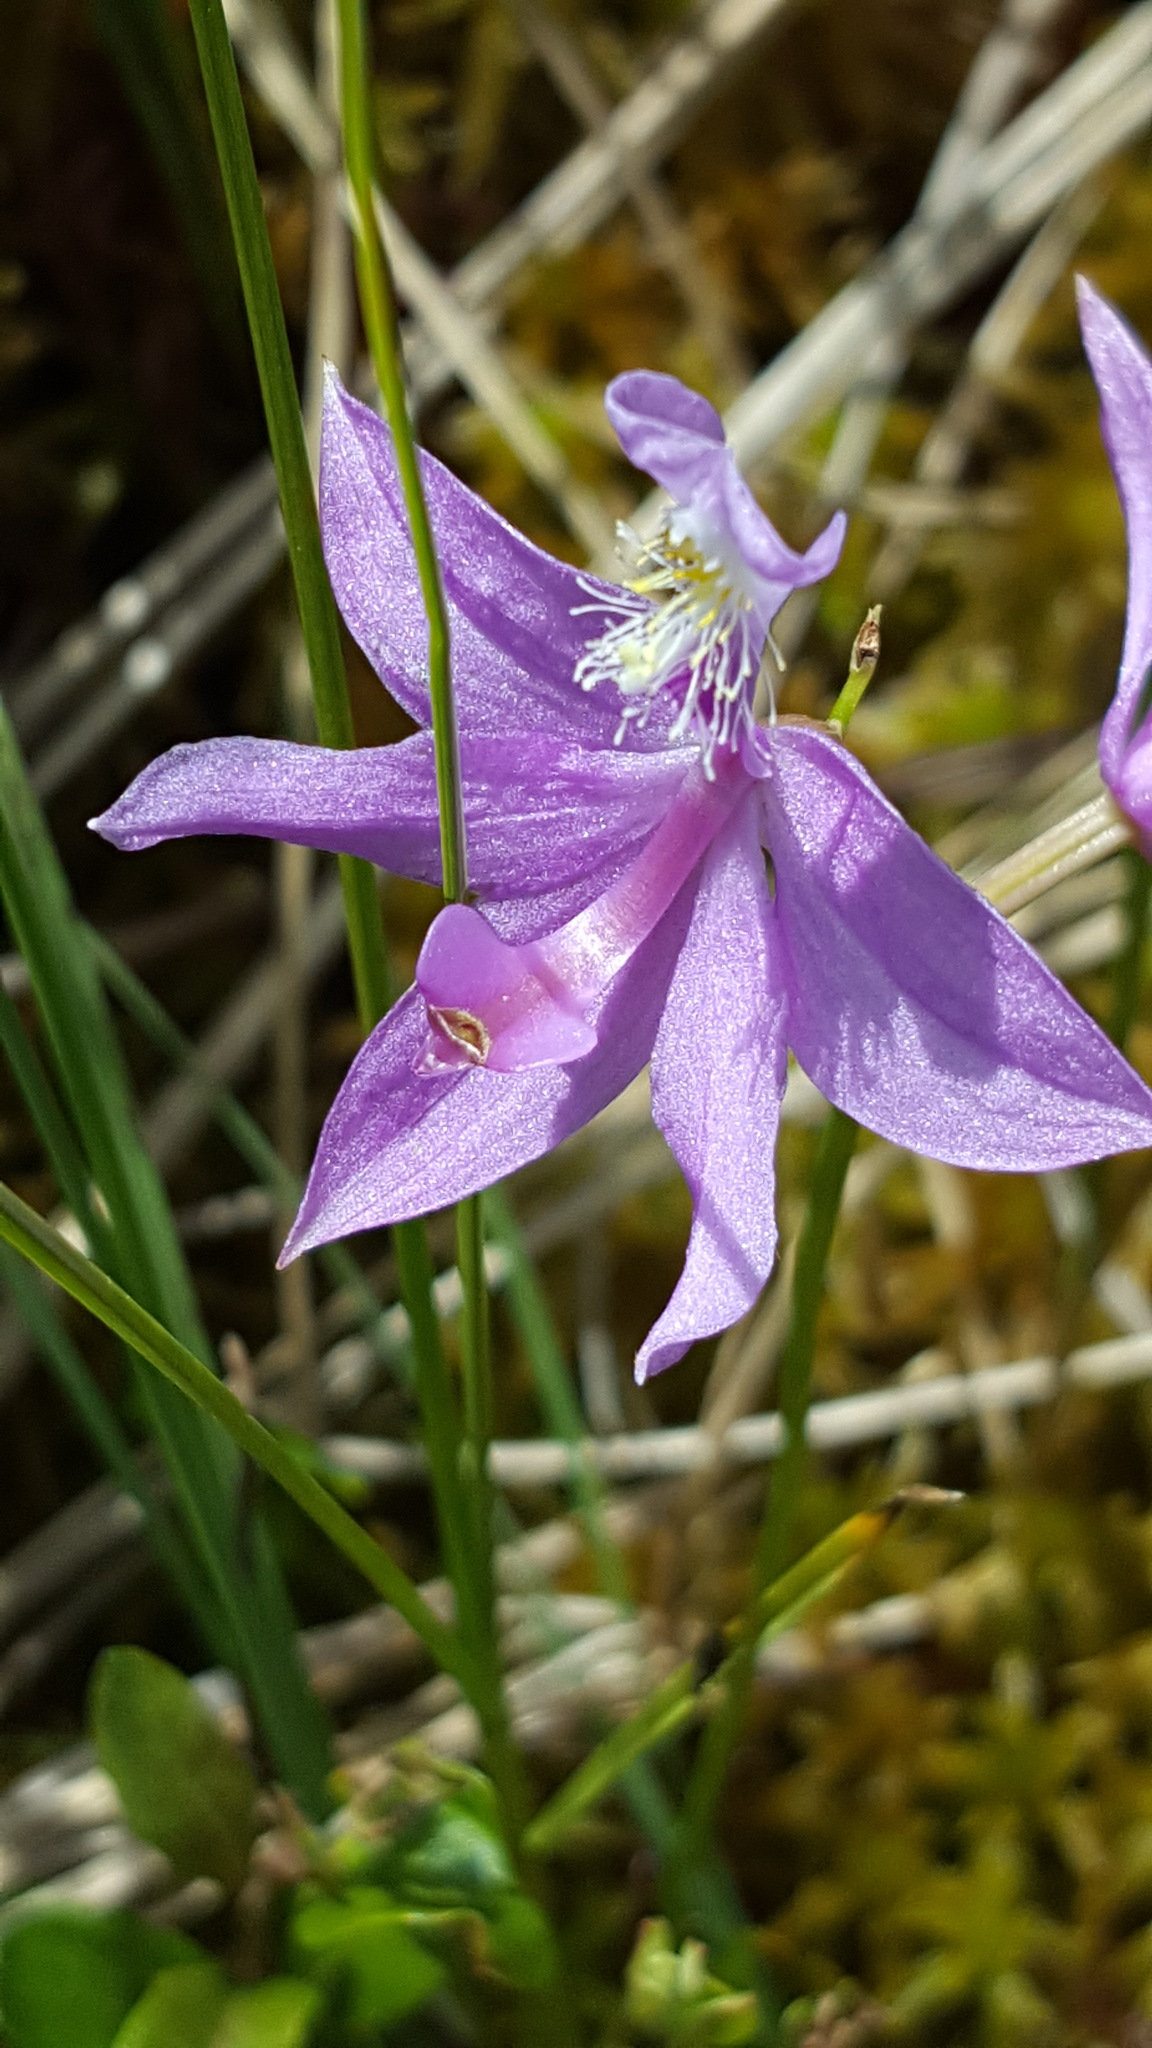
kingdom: Plantae
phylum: Tracheophyta
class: Liliopsida
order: Asparagales
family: Orchidaceae
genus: Calopogon
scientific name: Calopogon tuberosus
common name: Grass-pink
